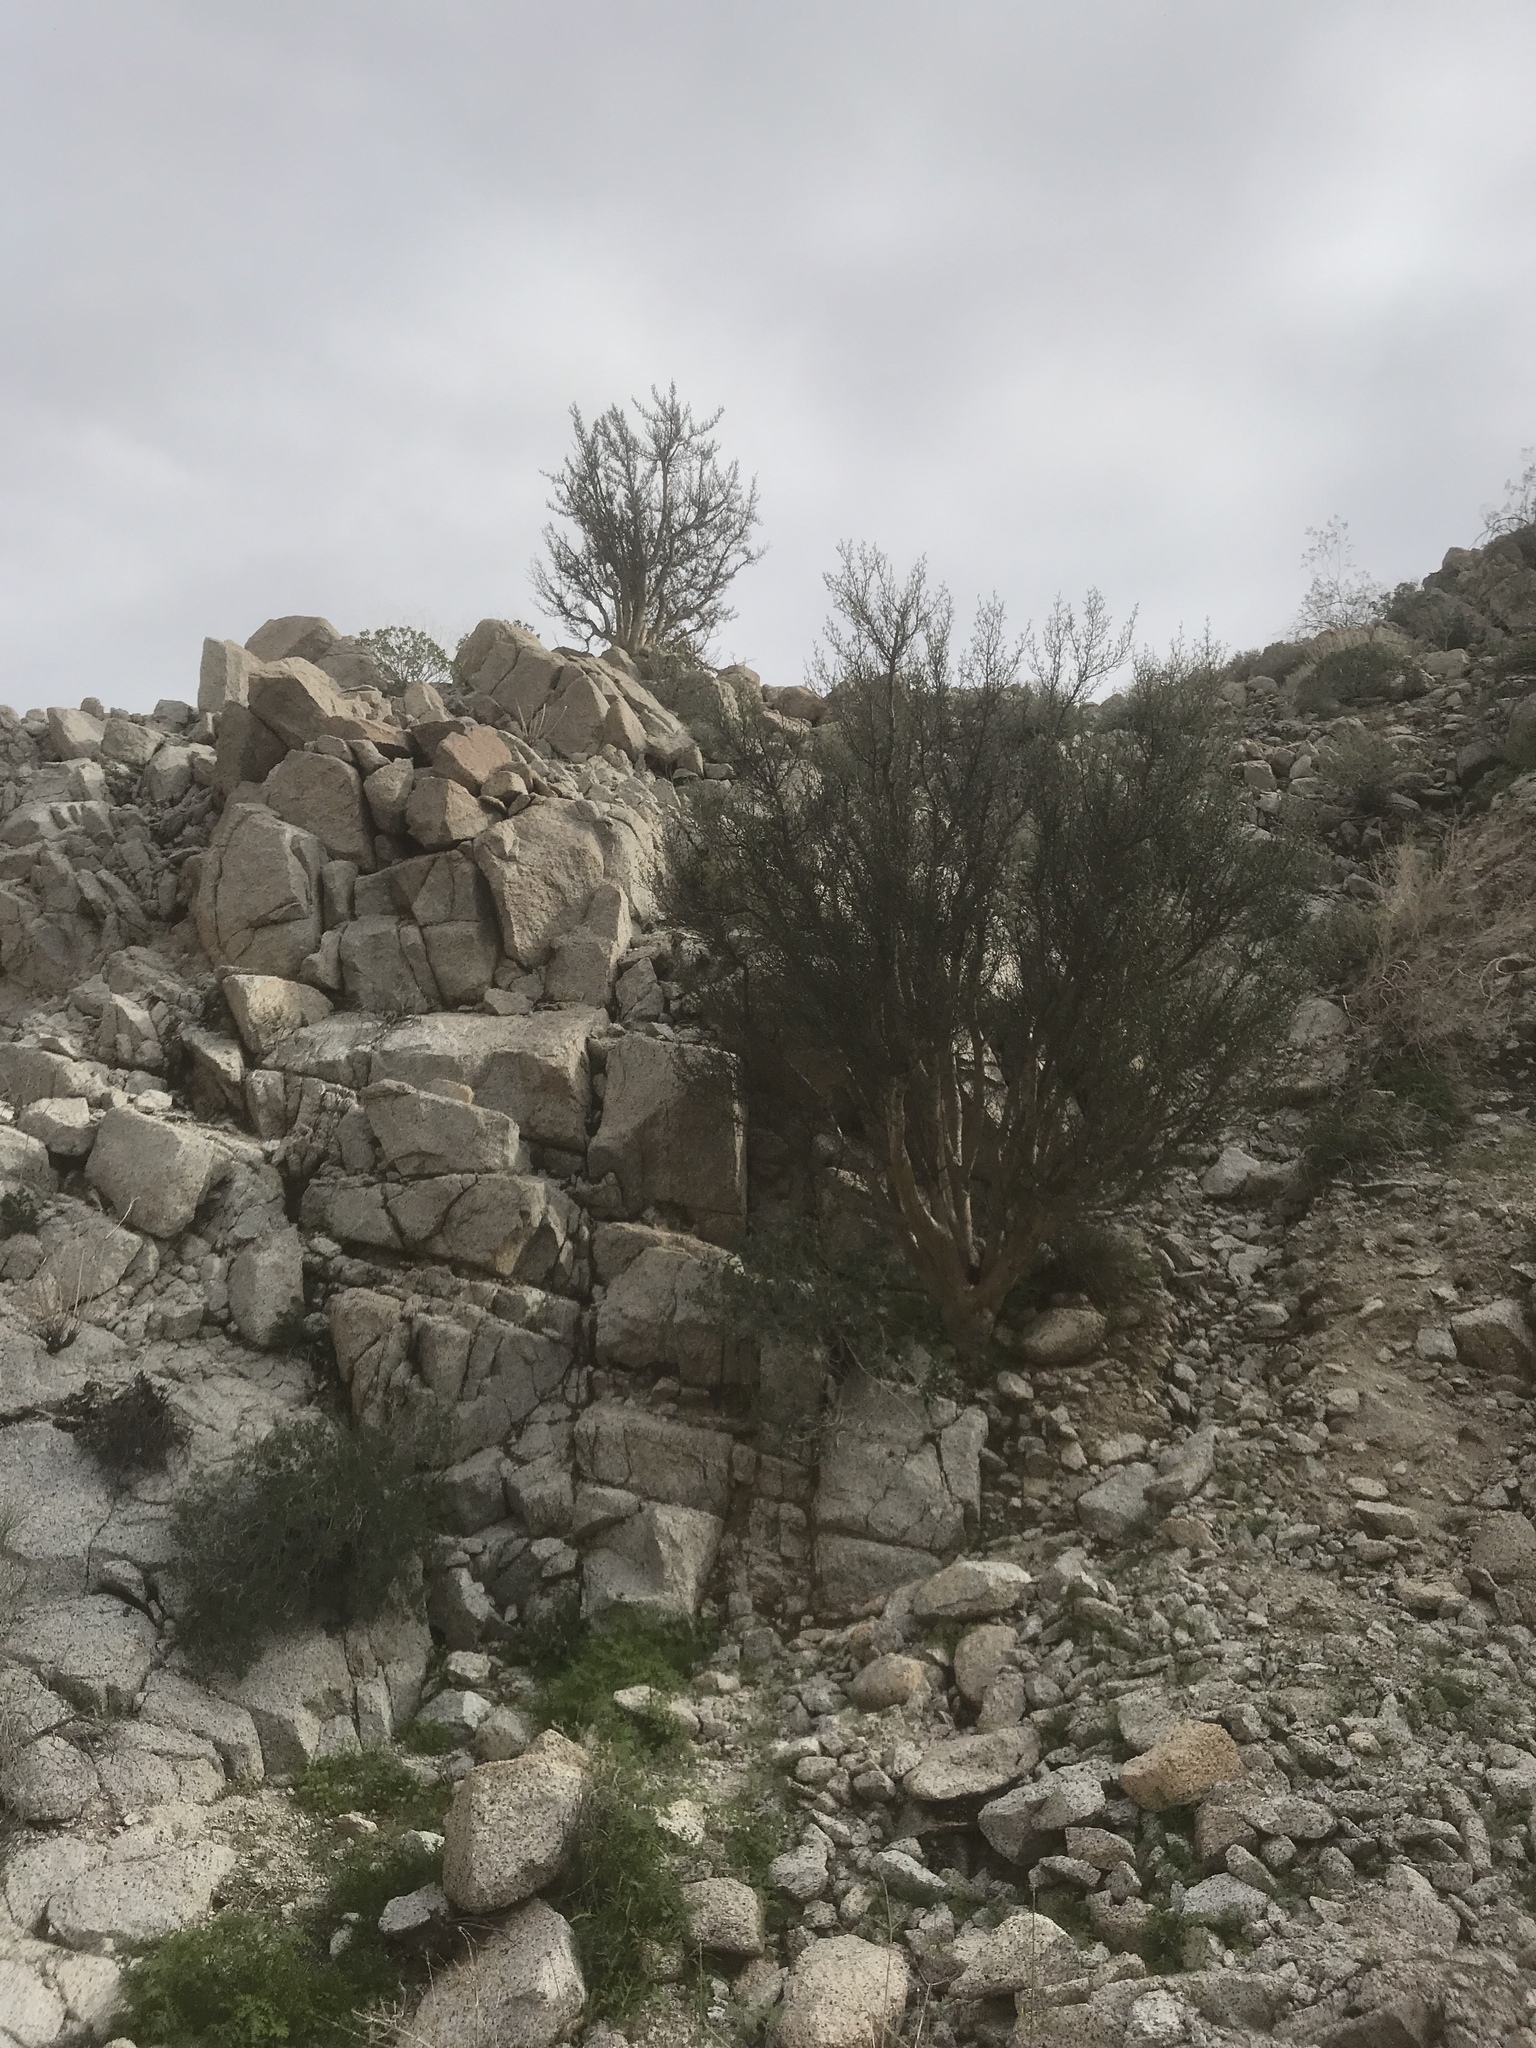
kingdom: Plantae
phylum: Tracheophyta
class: Magnoliopsida
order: Sapindales
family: Burseraceae
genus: Bursera
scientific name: Bursera microphylla
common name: Elephant tree
